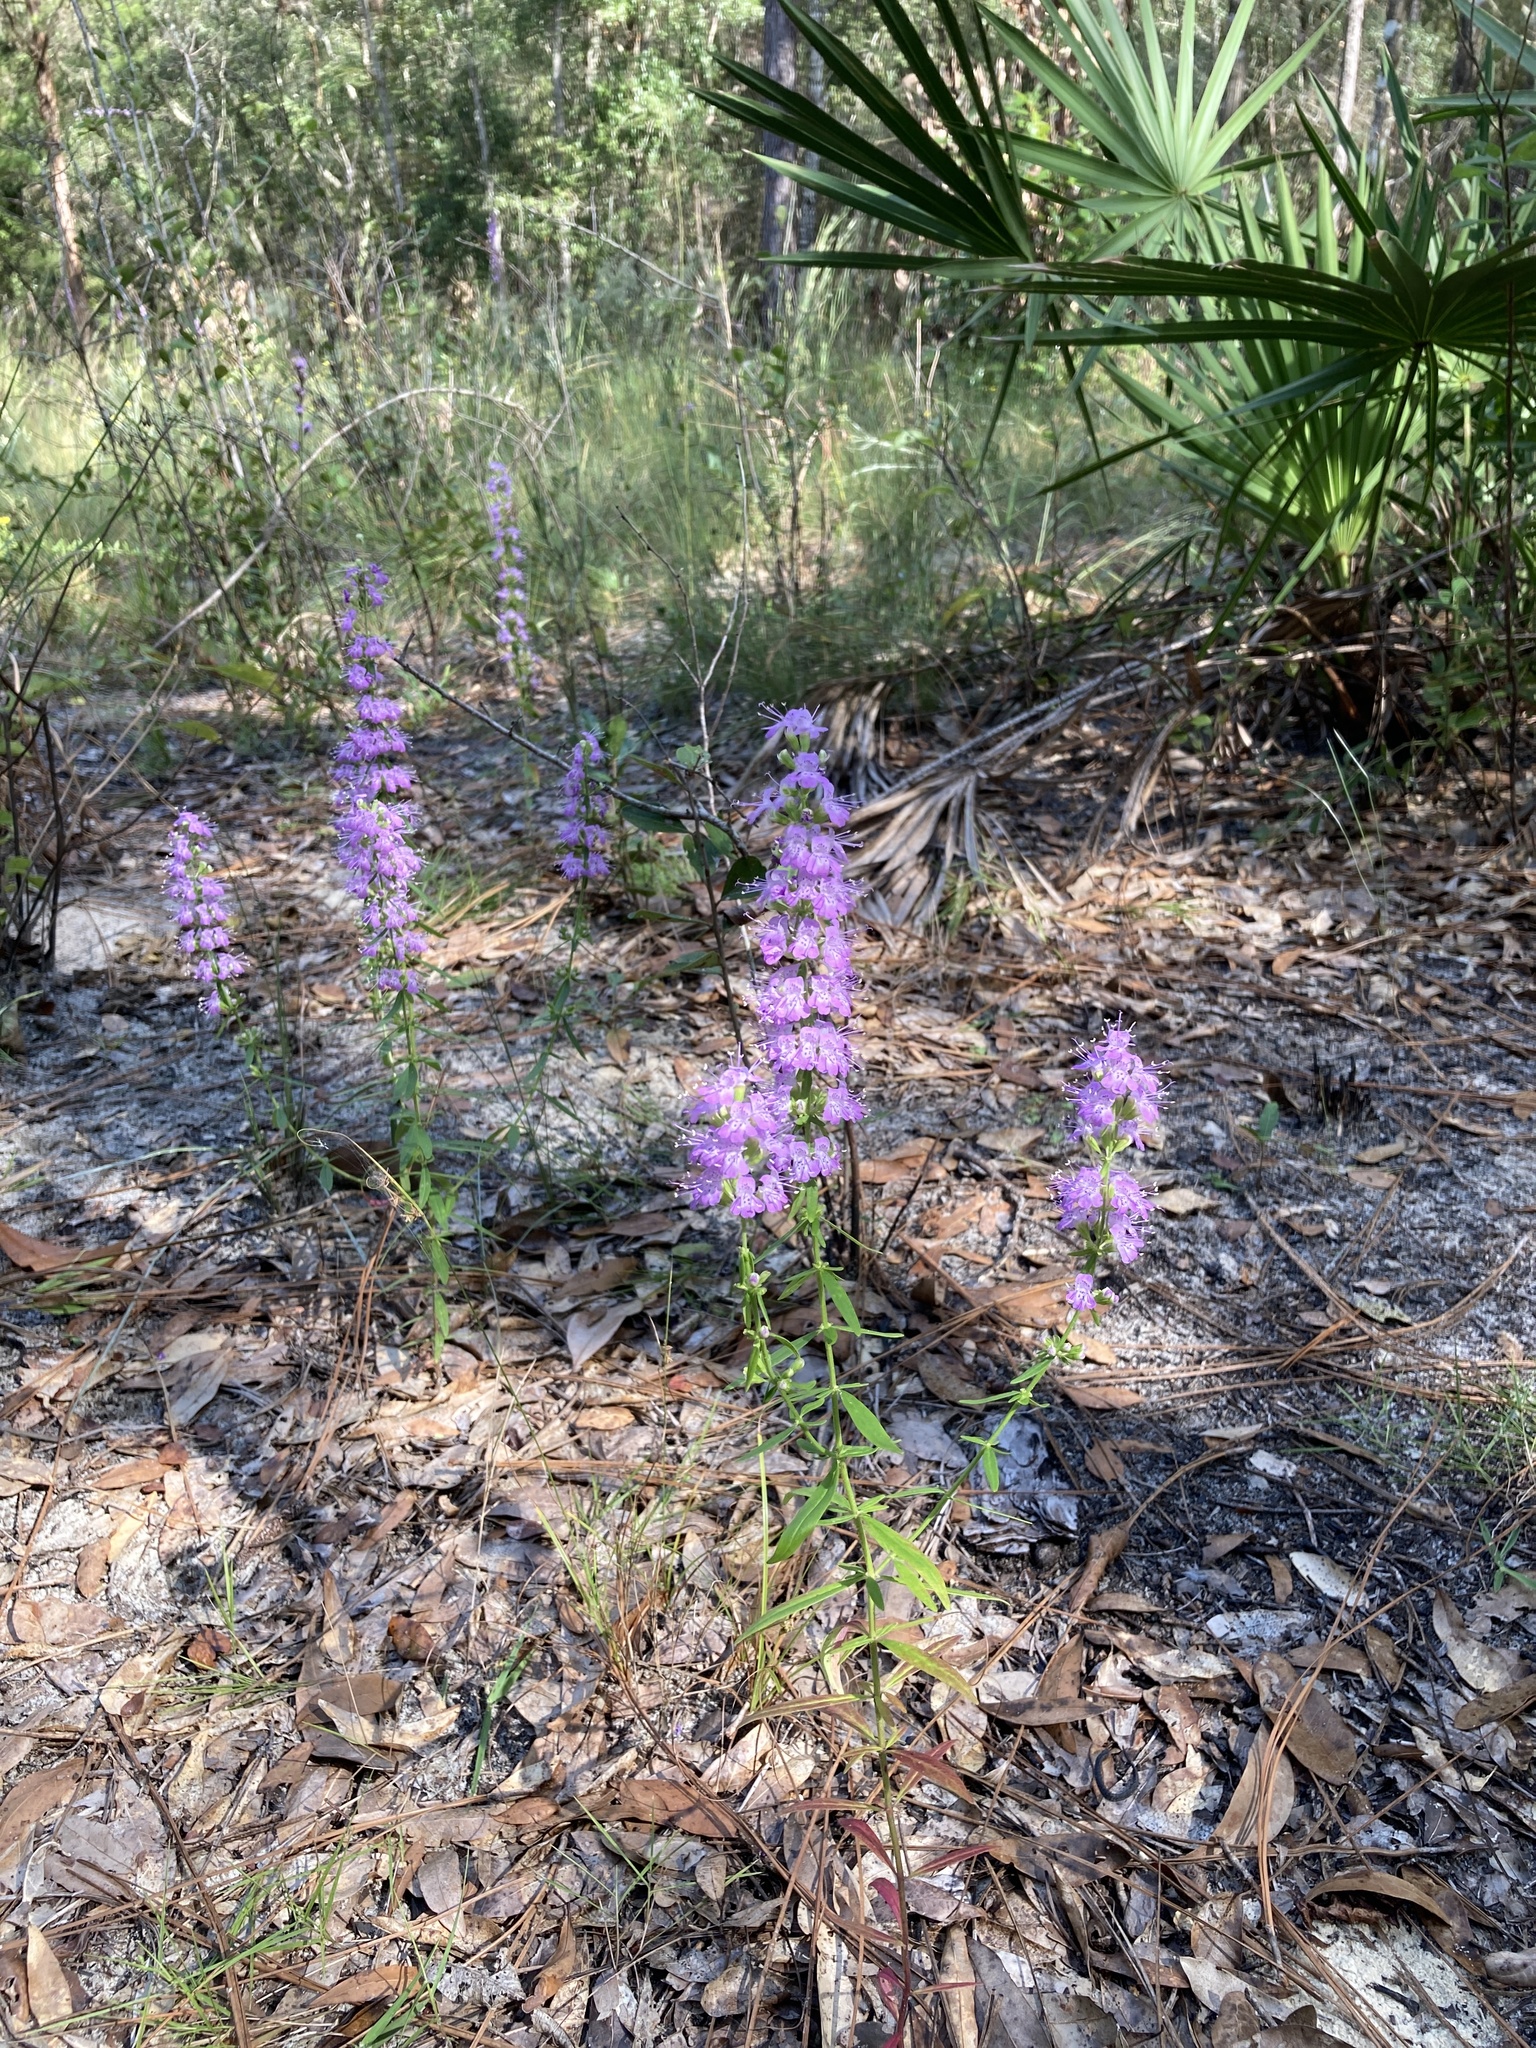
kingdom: Plantae
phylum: Tracheophyta
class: Magnoliopsida
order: Lamiales
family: Lamiaceae
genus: Dicerandra
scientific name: Dicerandra densiflora
